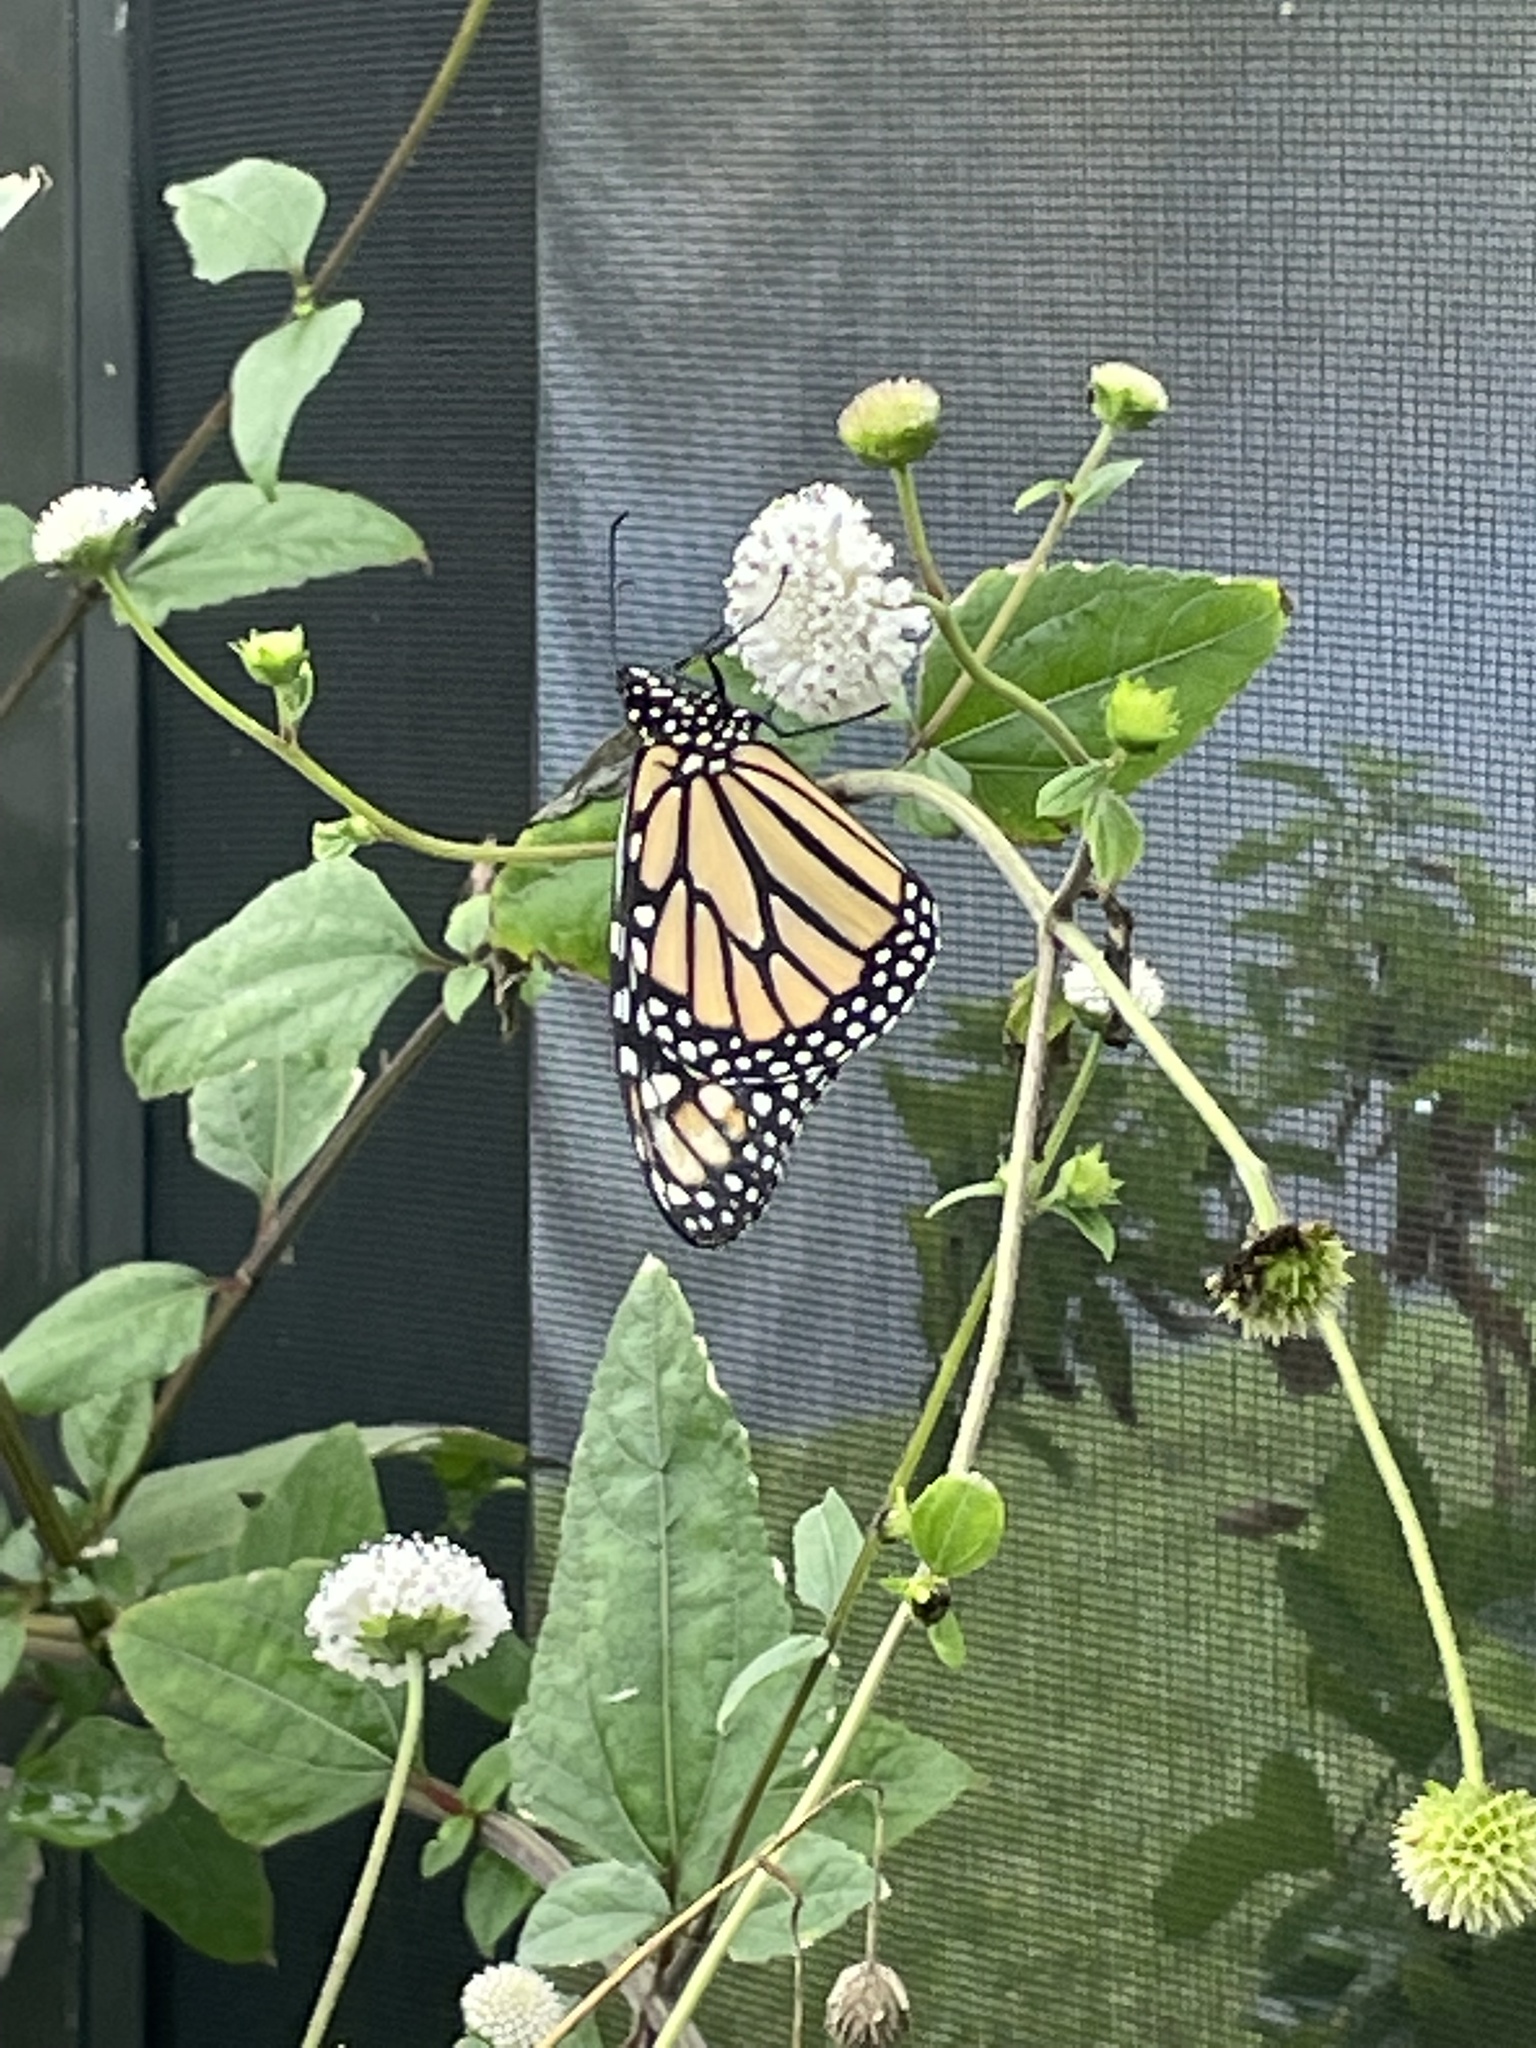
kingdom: Animalia
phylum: Arthropoda
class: Insecta
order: Lepidoptera
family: Nymphalidae
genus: Danaus
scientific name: Danaus plexippus
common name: Monarch
